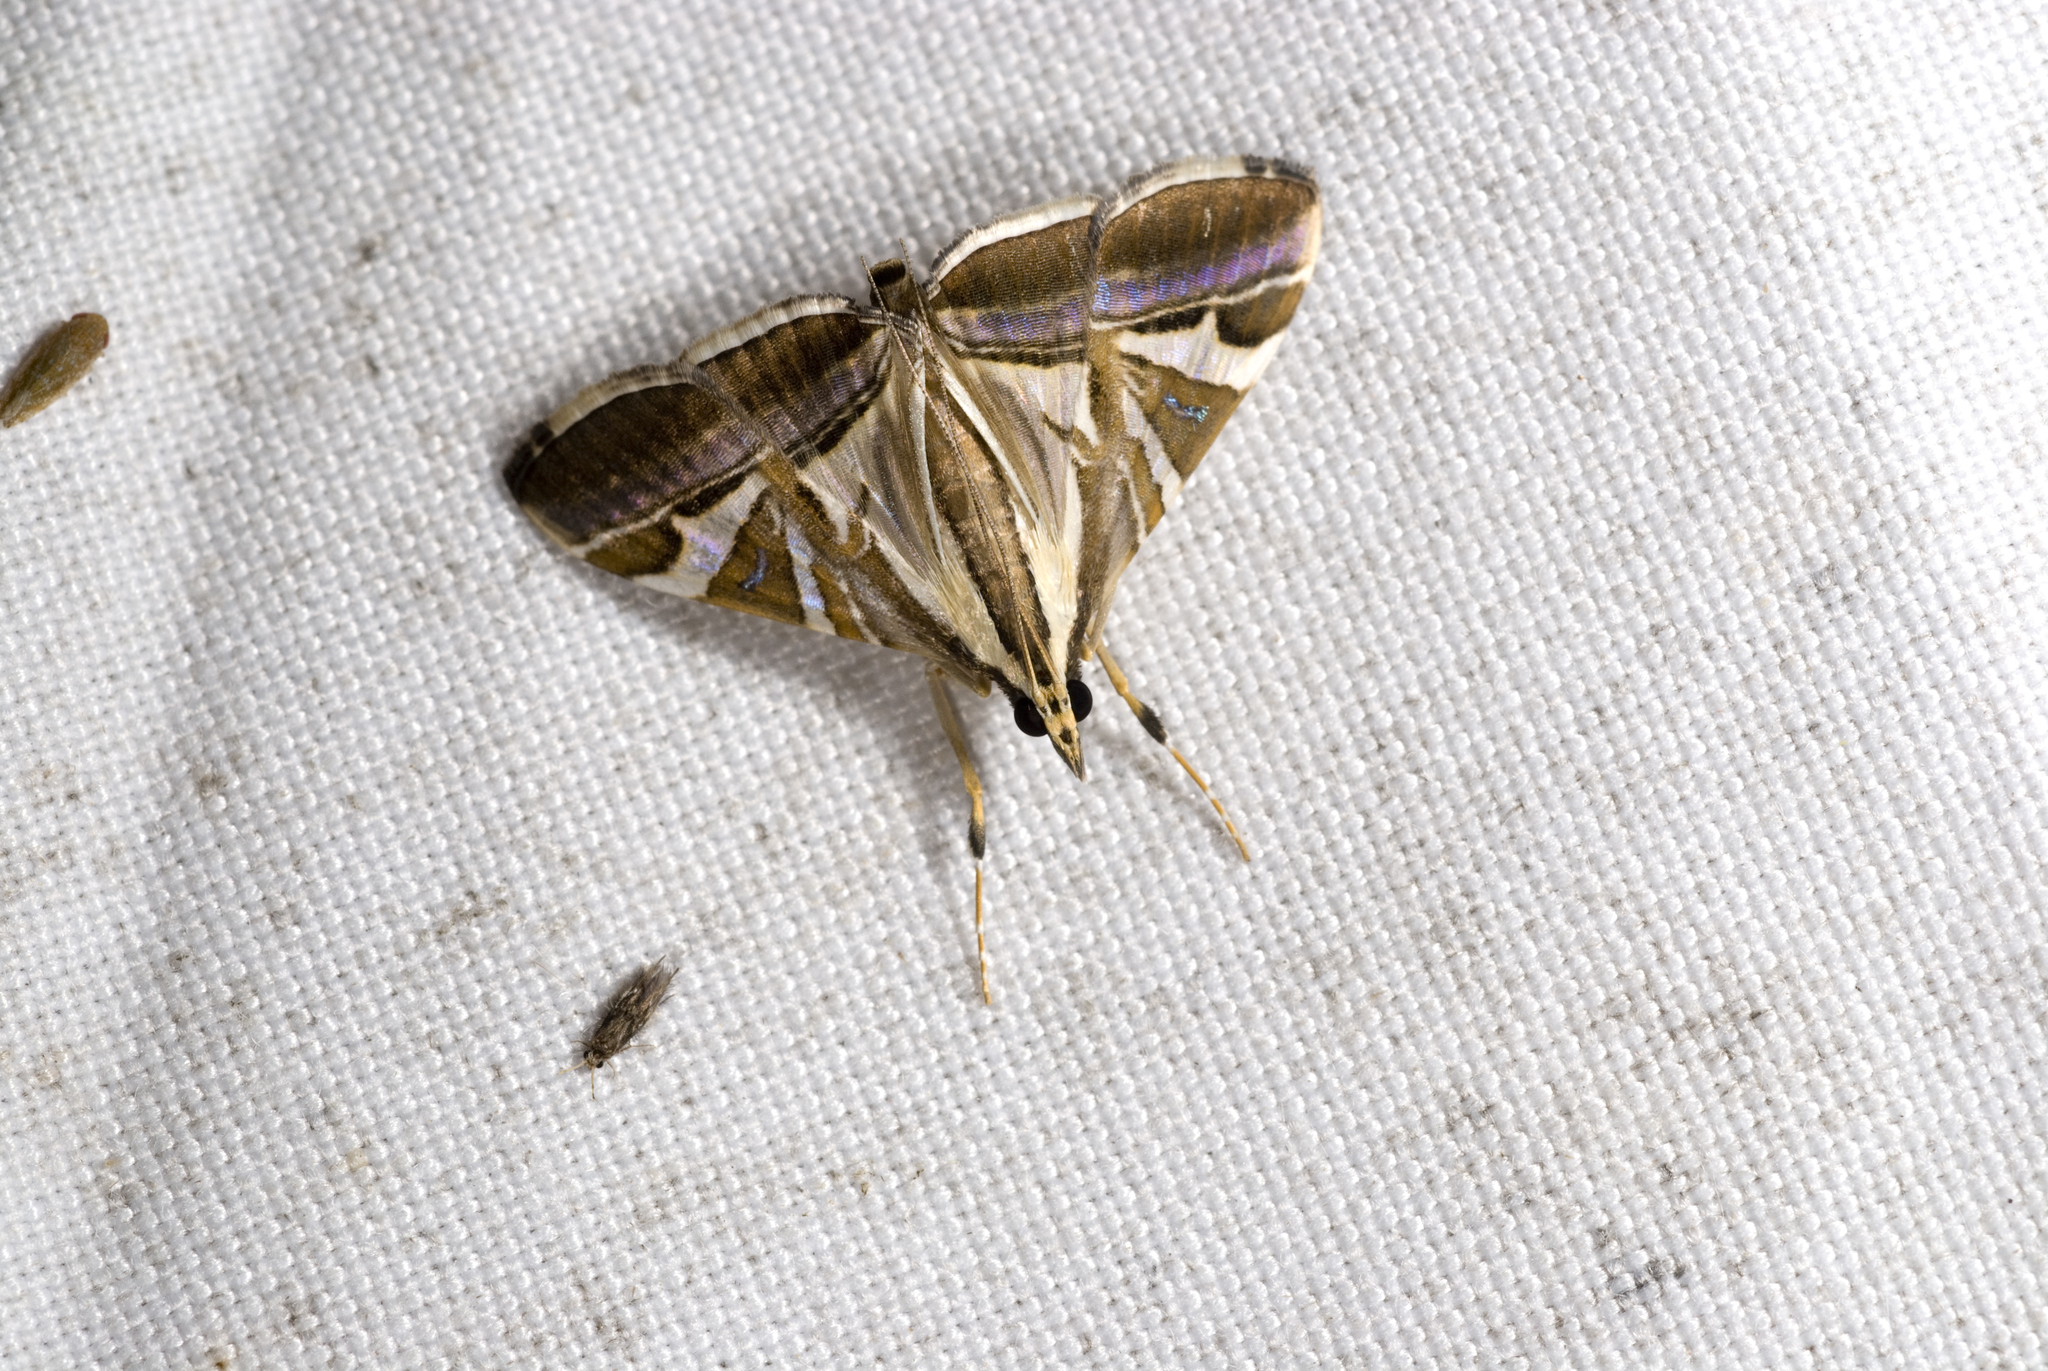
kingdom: Animalia
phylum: Arthropoda
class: Insecta
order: Lepidoptera
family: Crambidae
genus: Agrioglypta
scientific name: Agrioglypta itysalis
